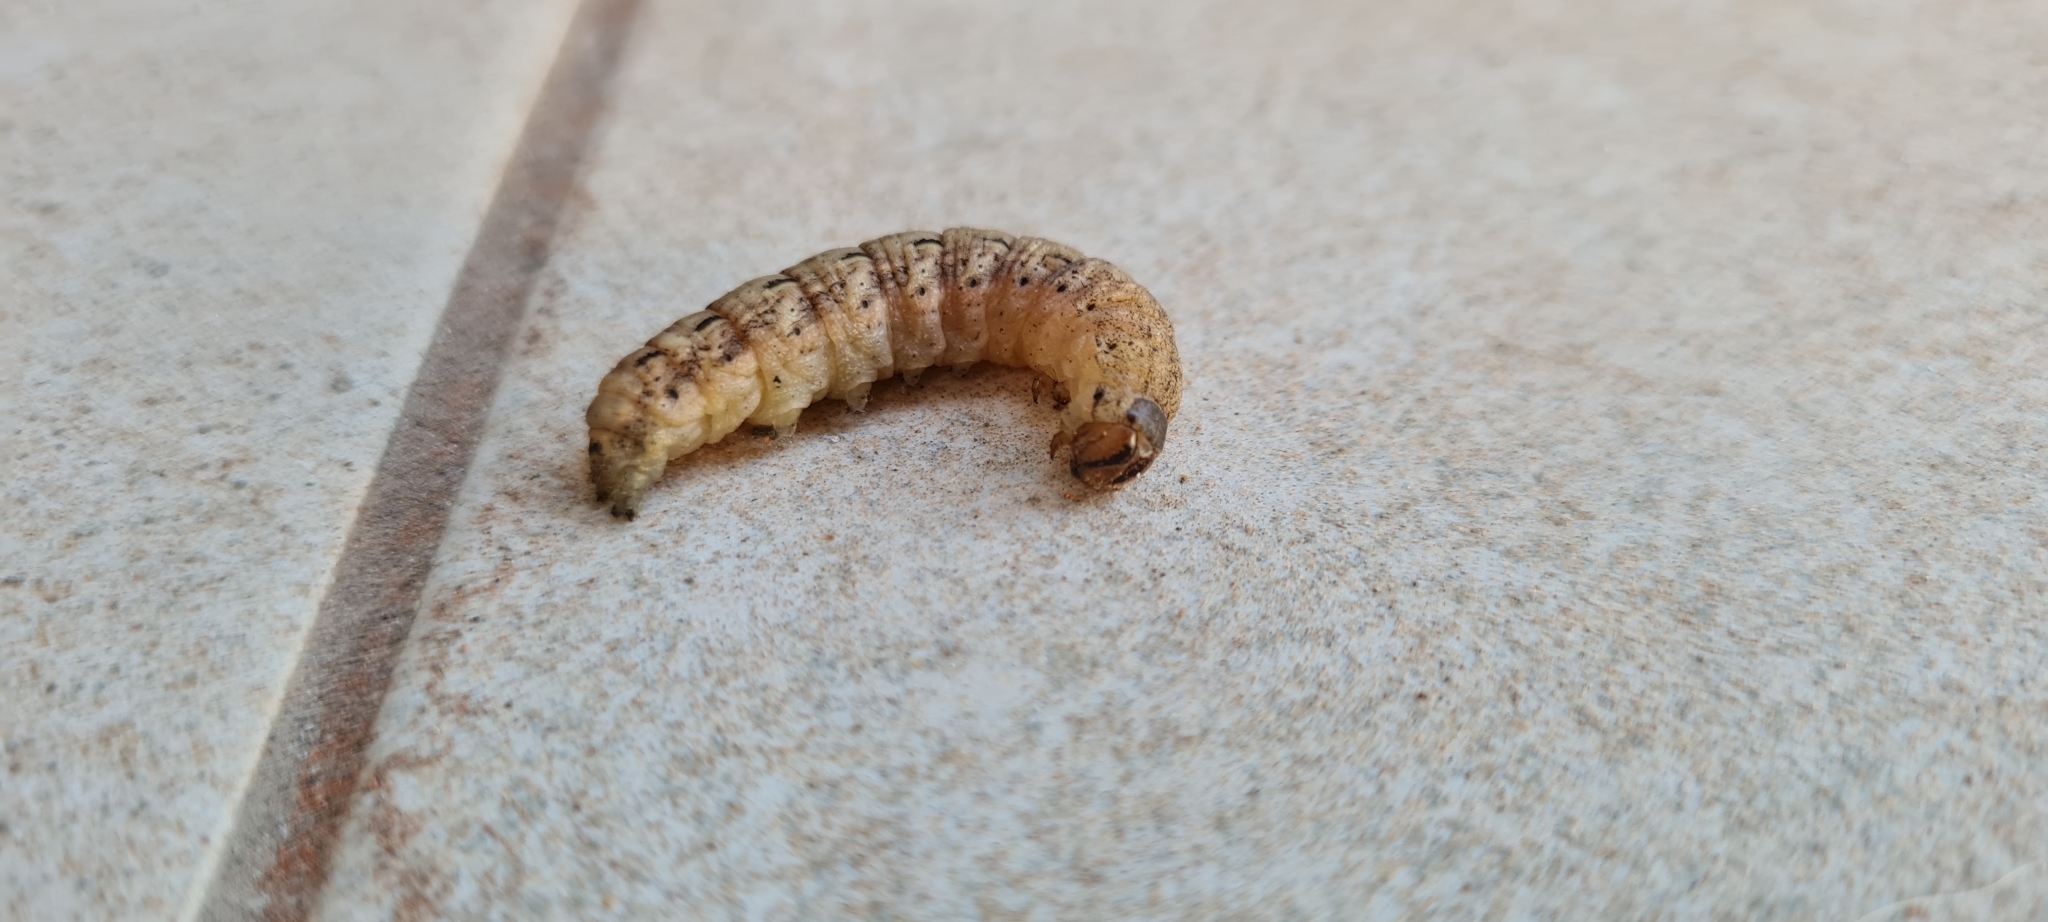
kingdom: Animalia
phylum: Arthropoda
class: Insecta
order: Lepidoptera
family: Noctuidae
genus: Noctua
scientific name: Noctua pronuba
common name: Large yellow underwing
